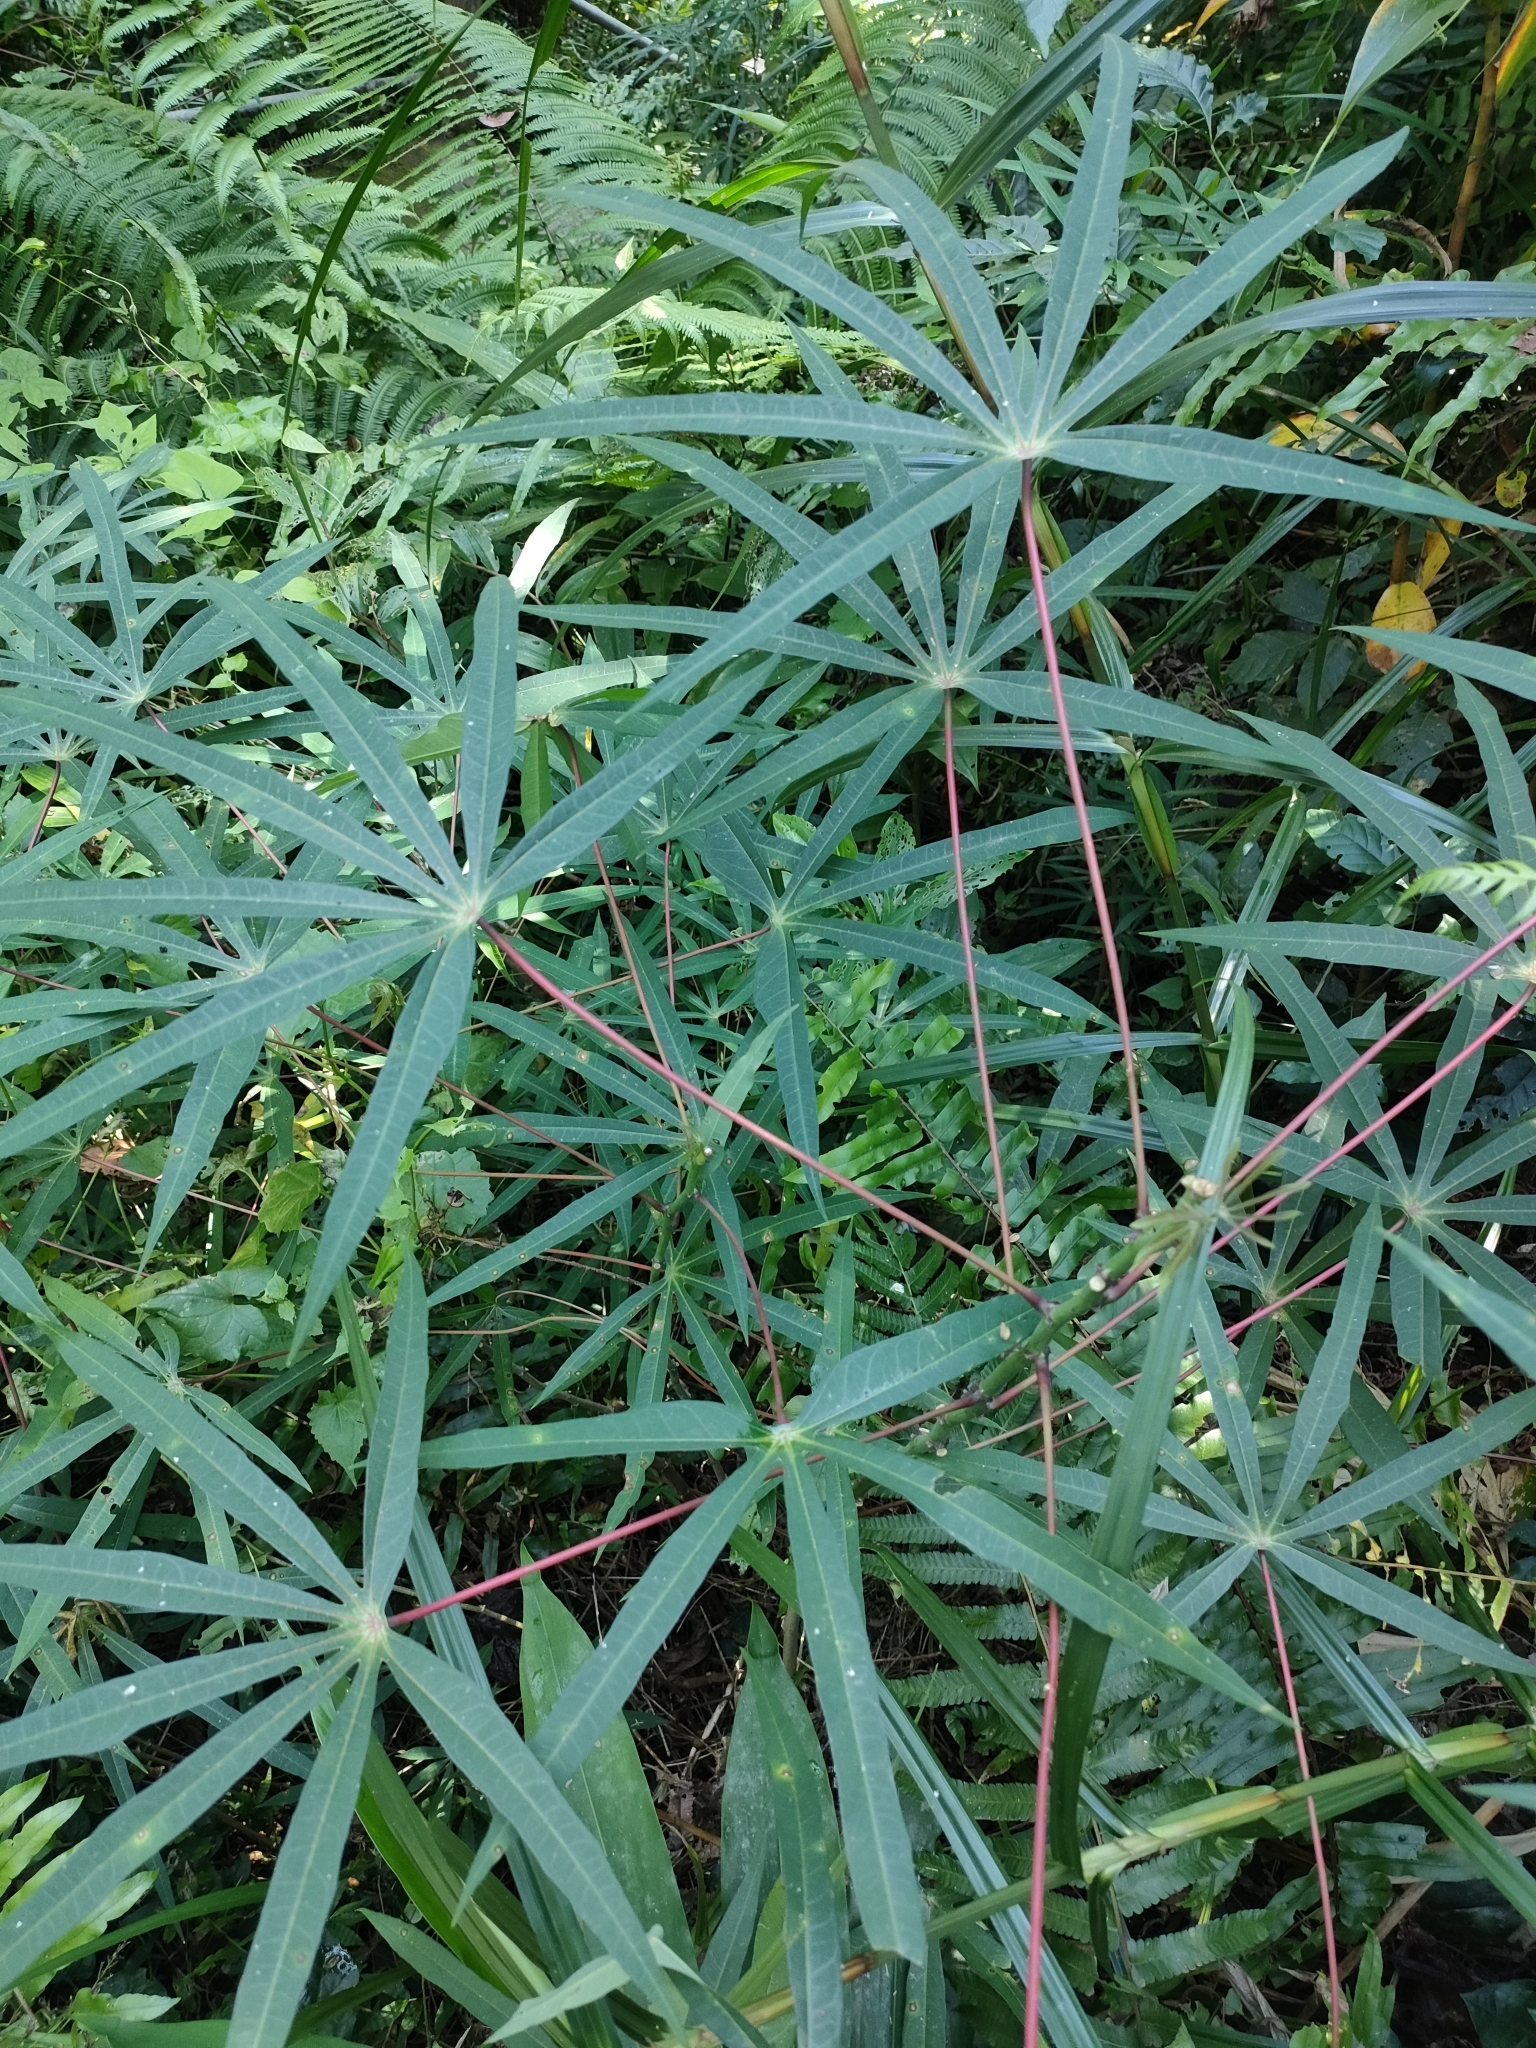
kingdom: Plantae
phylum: Tracheophyta
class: Magnoliopsida
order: Malpighiales
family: Euphorbiaceae
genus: Manihot
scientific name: Manihot esculenta
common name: Cassava
